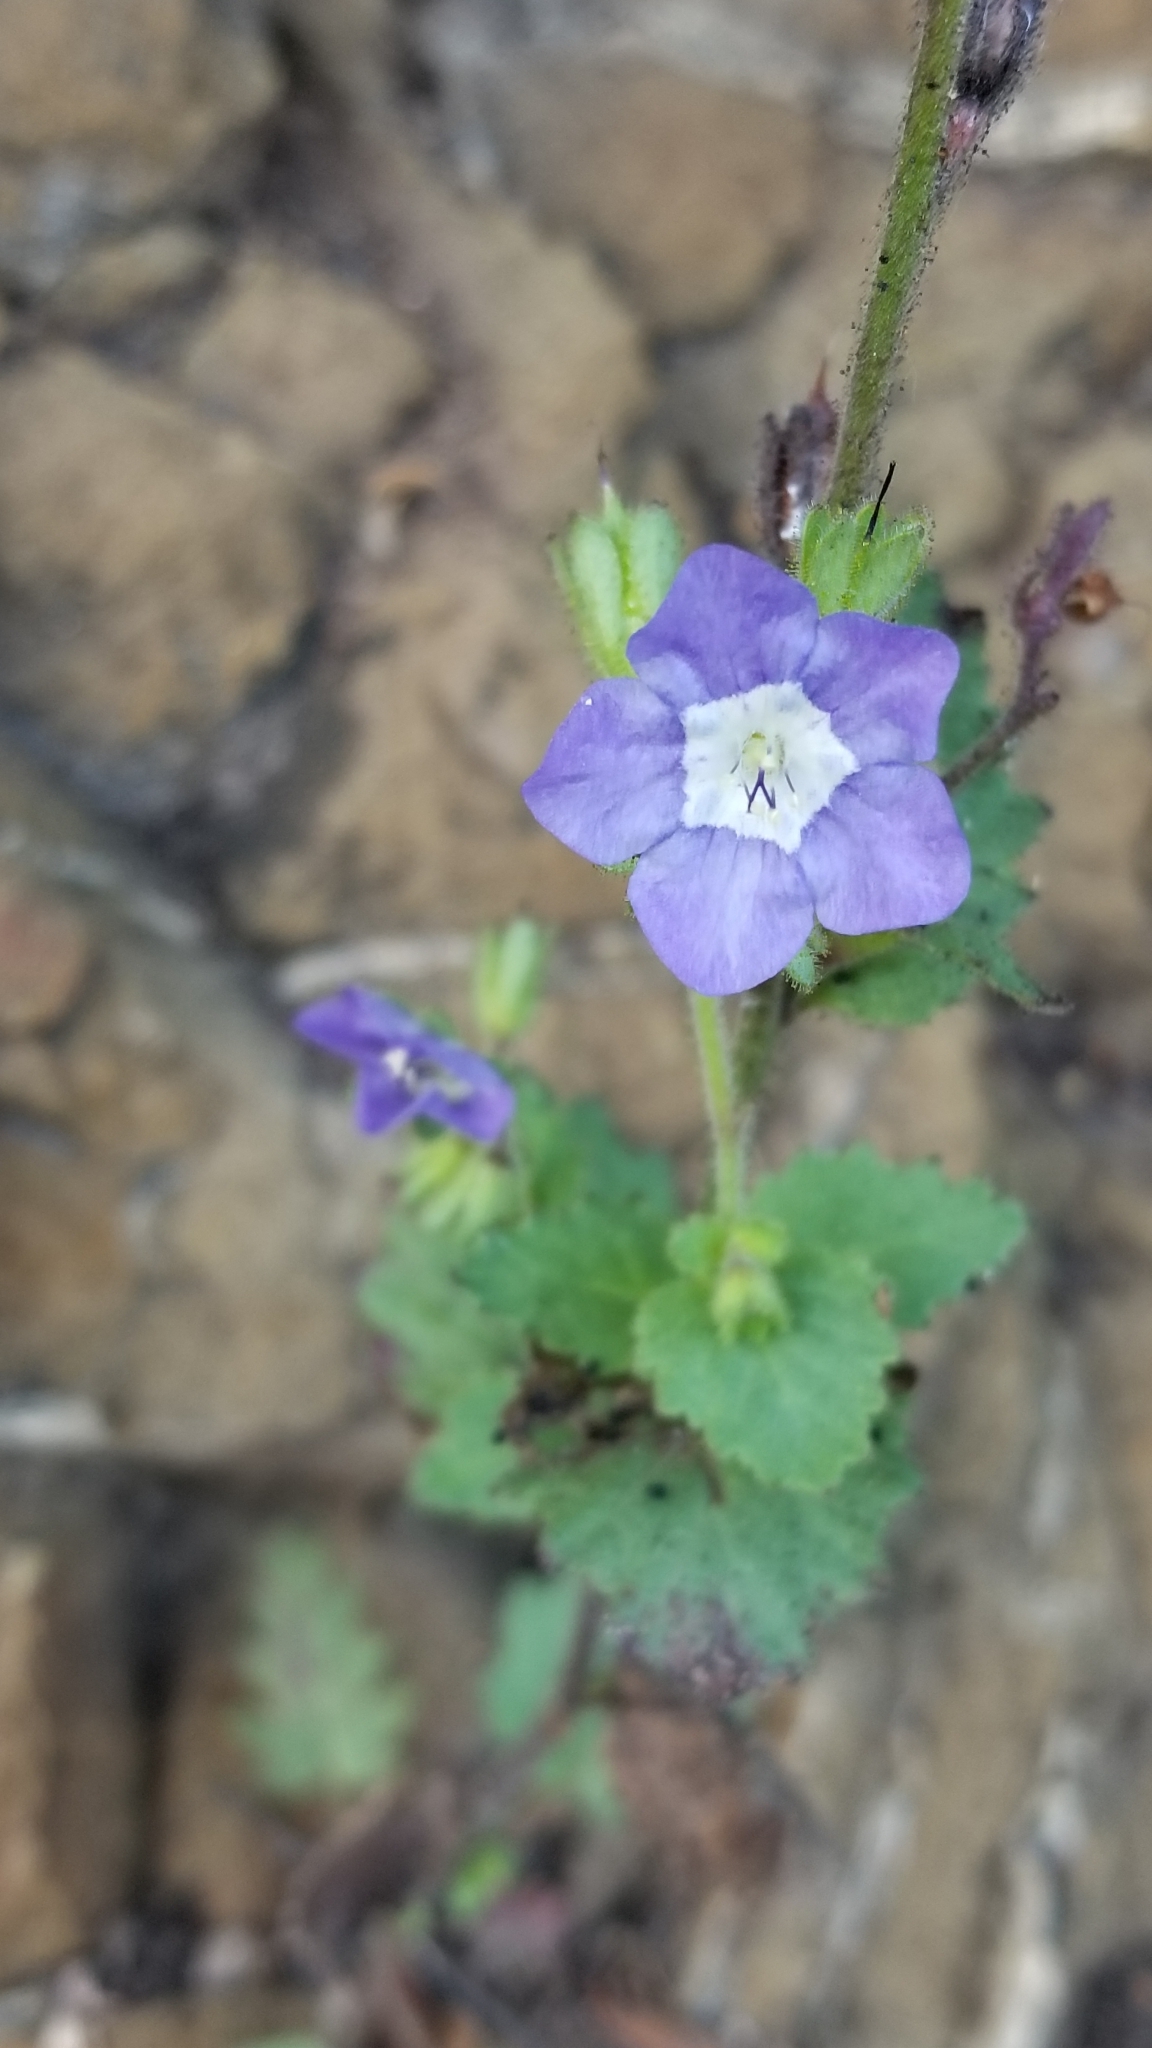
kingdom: Plantae
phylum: Tracheophyta
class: Magnoliopsida
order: Boraginales
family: Hydrophyllaceae
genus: Phacelia
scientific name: Phacelia viscida
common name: Sticky phacelia
